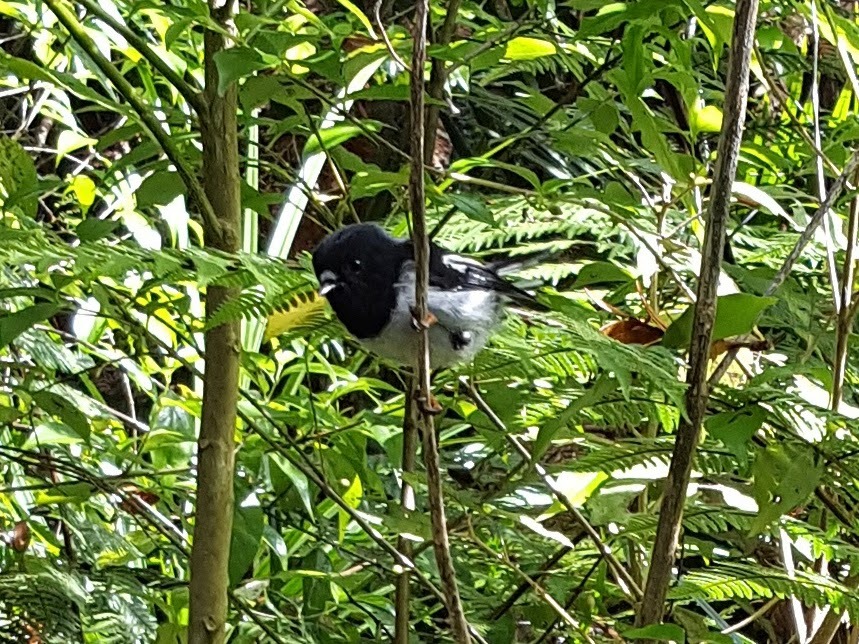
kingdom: Animalia
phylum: Chordata
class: Aves
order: Passeriformes
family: Petroicidae
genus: Petroica
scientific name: Petroica macrocephala
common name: Tomtit
